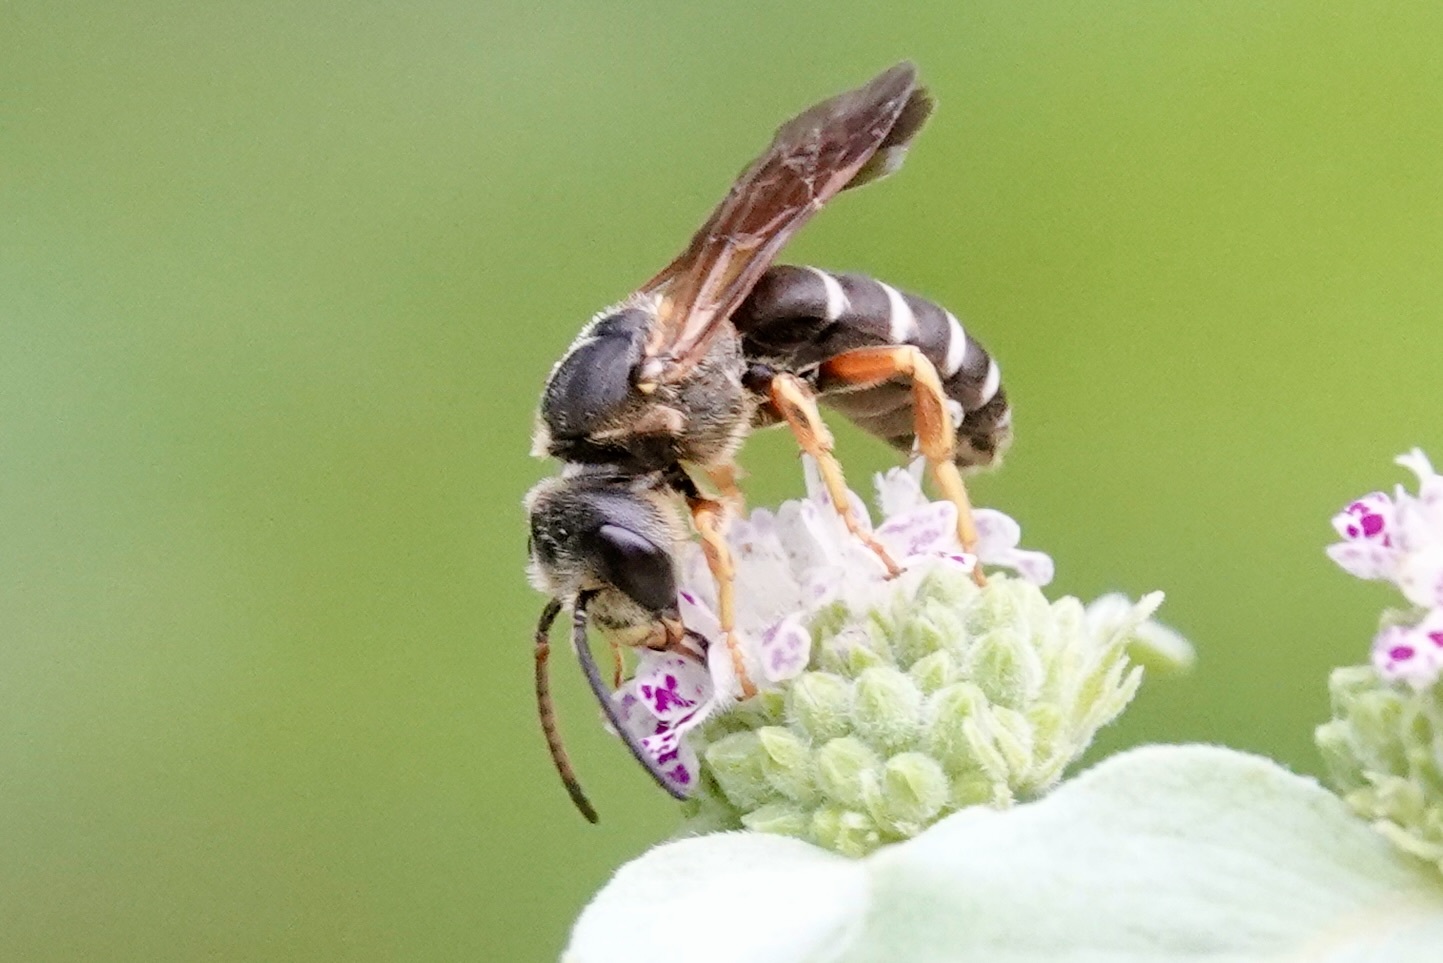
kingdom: Animalia
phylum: Arthropoda
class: Insecta
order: Hymenoptera
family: Halictidae
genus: Halictus
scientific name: Halictus parallelus
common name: Parallel-striped sweat bee
